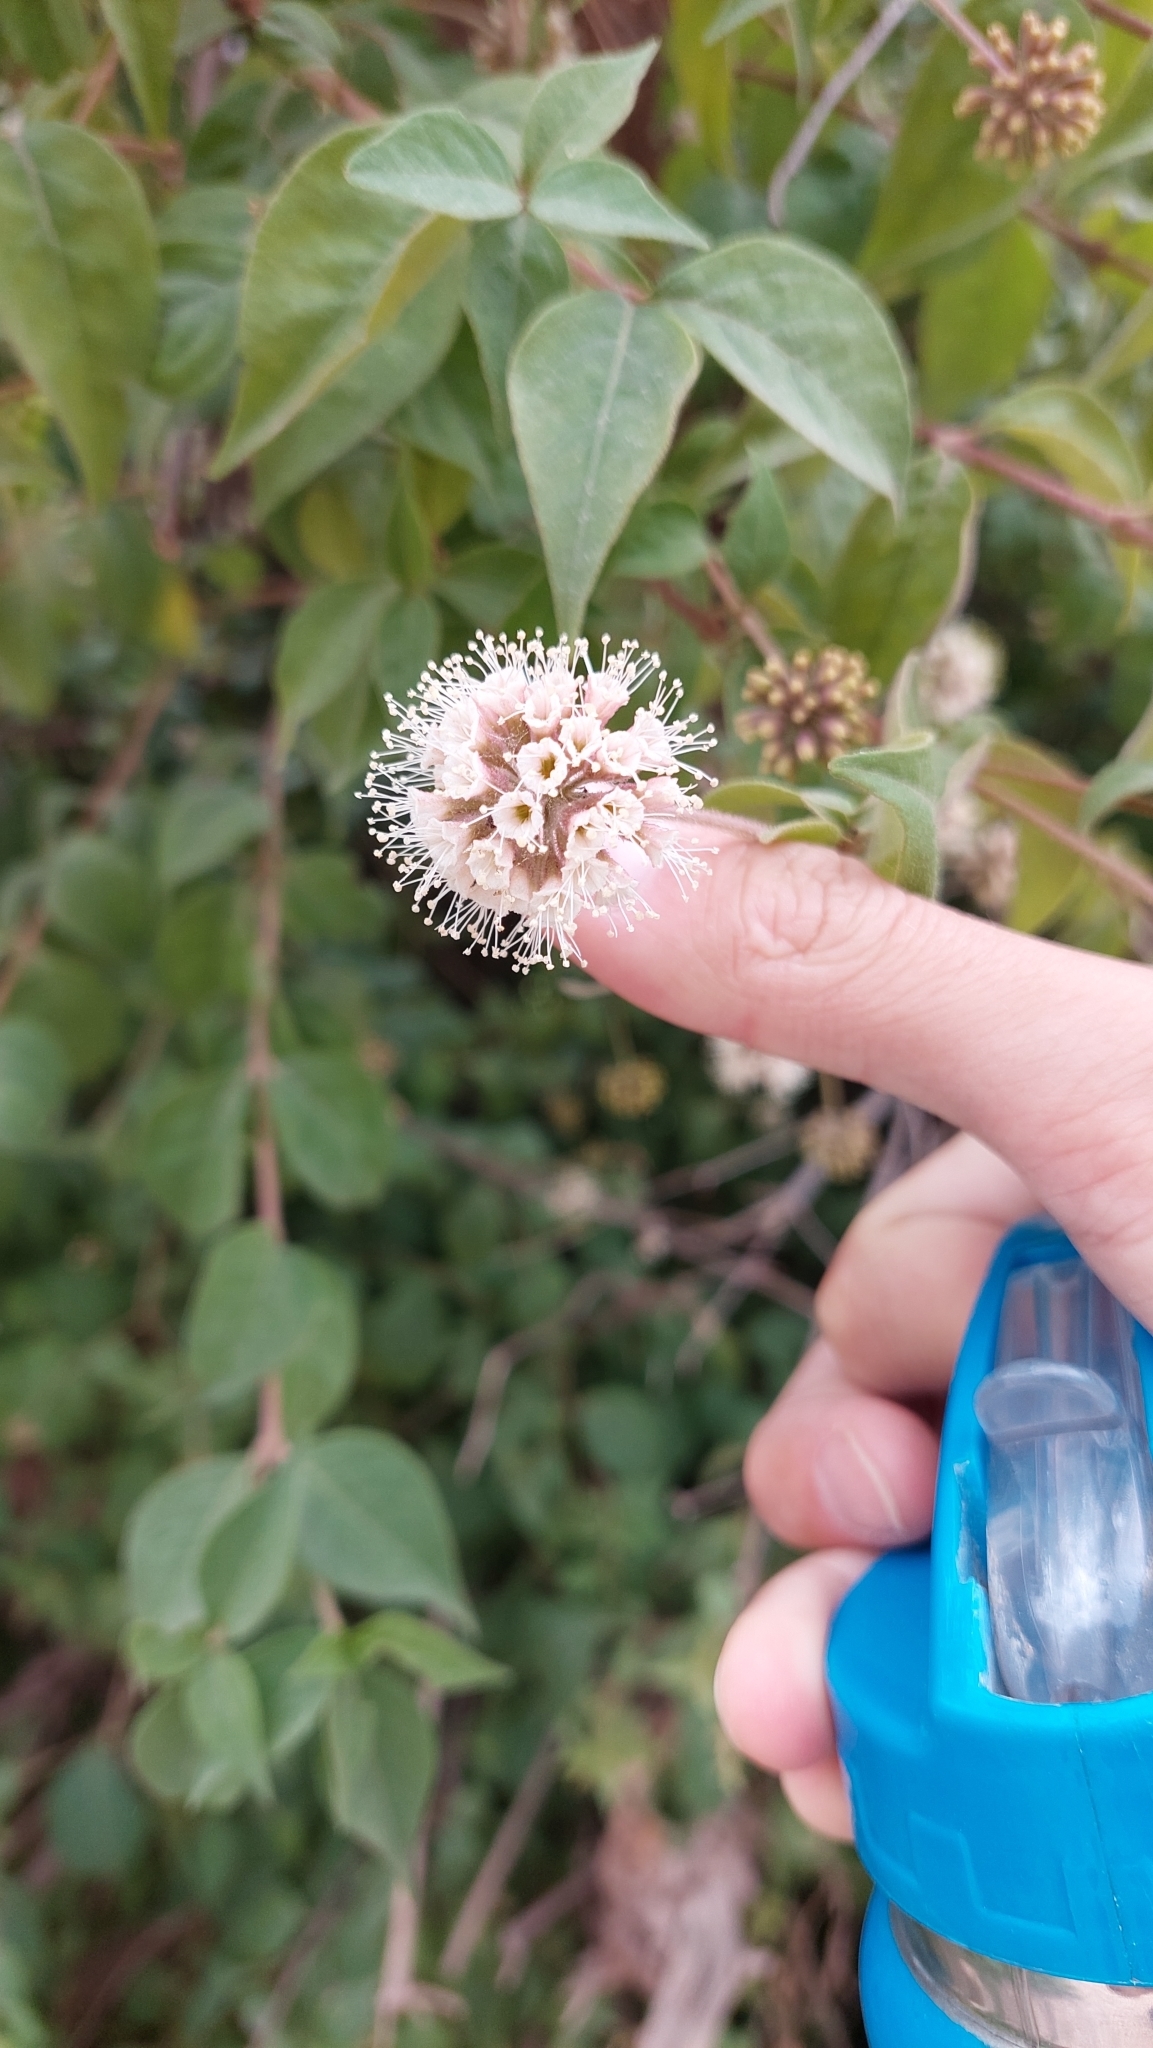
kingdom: Plantae
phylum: Tracheophyta
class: Magnoliopsida
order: Caryophyllales
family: Nyctaginaceae
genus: Pisoniella
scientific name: Pisoniella arborescens
